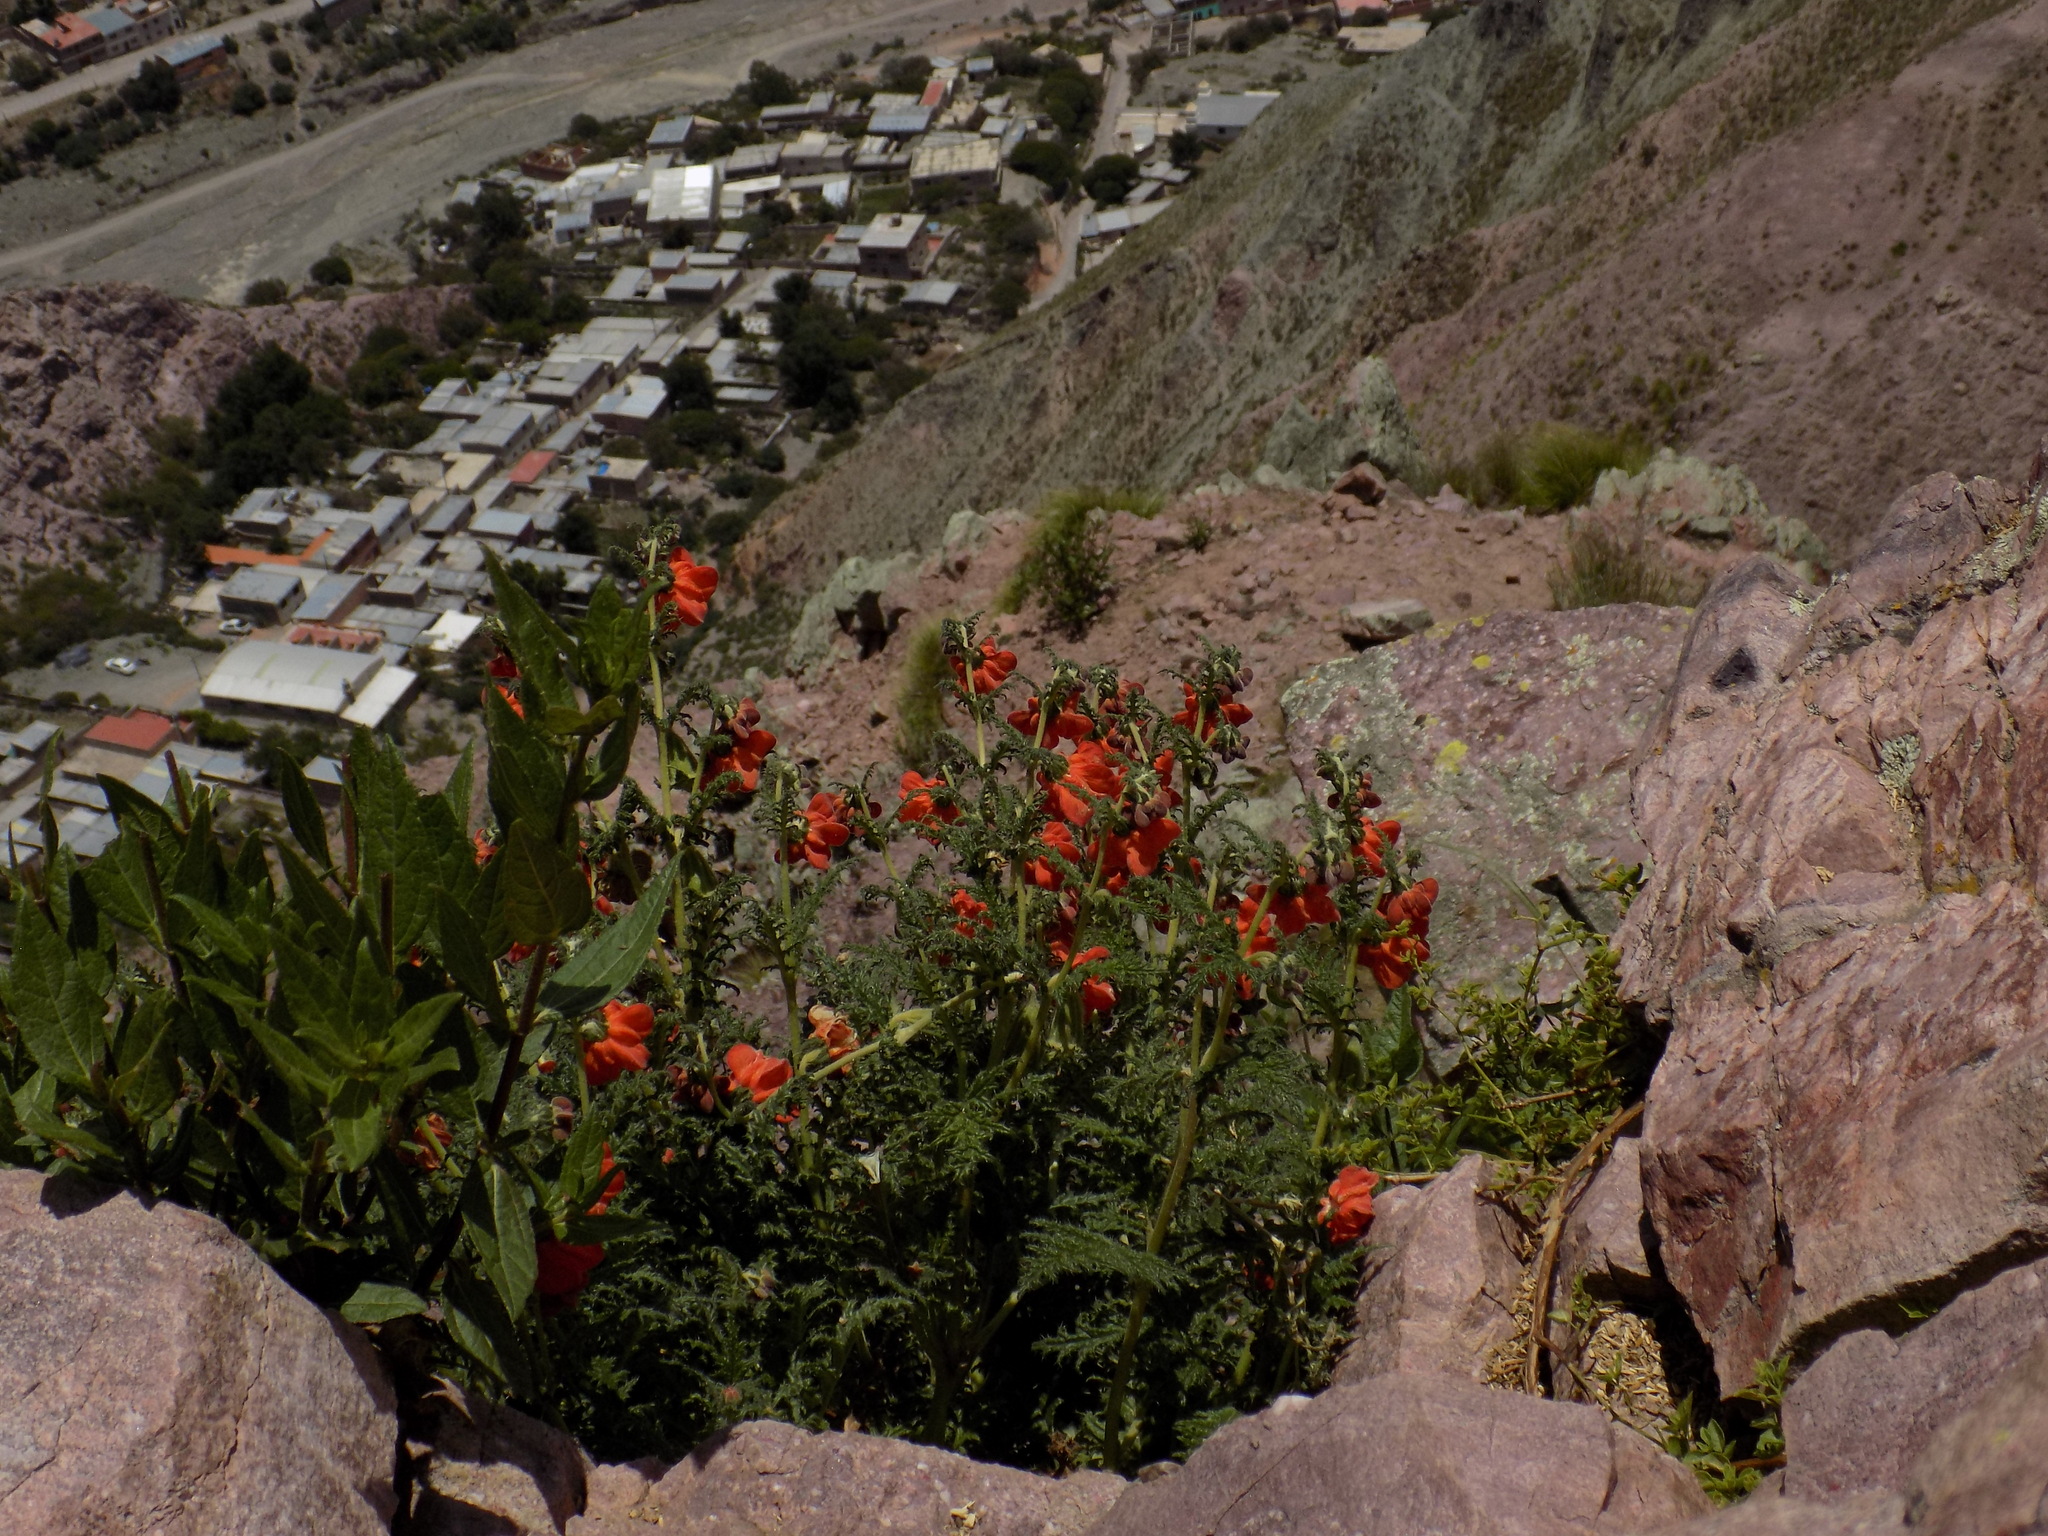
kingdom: Plantae
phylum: Tracheophyta
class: Magnoliopsida
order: Cornales
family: Loasaceae
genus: Caiophora
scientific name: Caiophora chuquitensis
